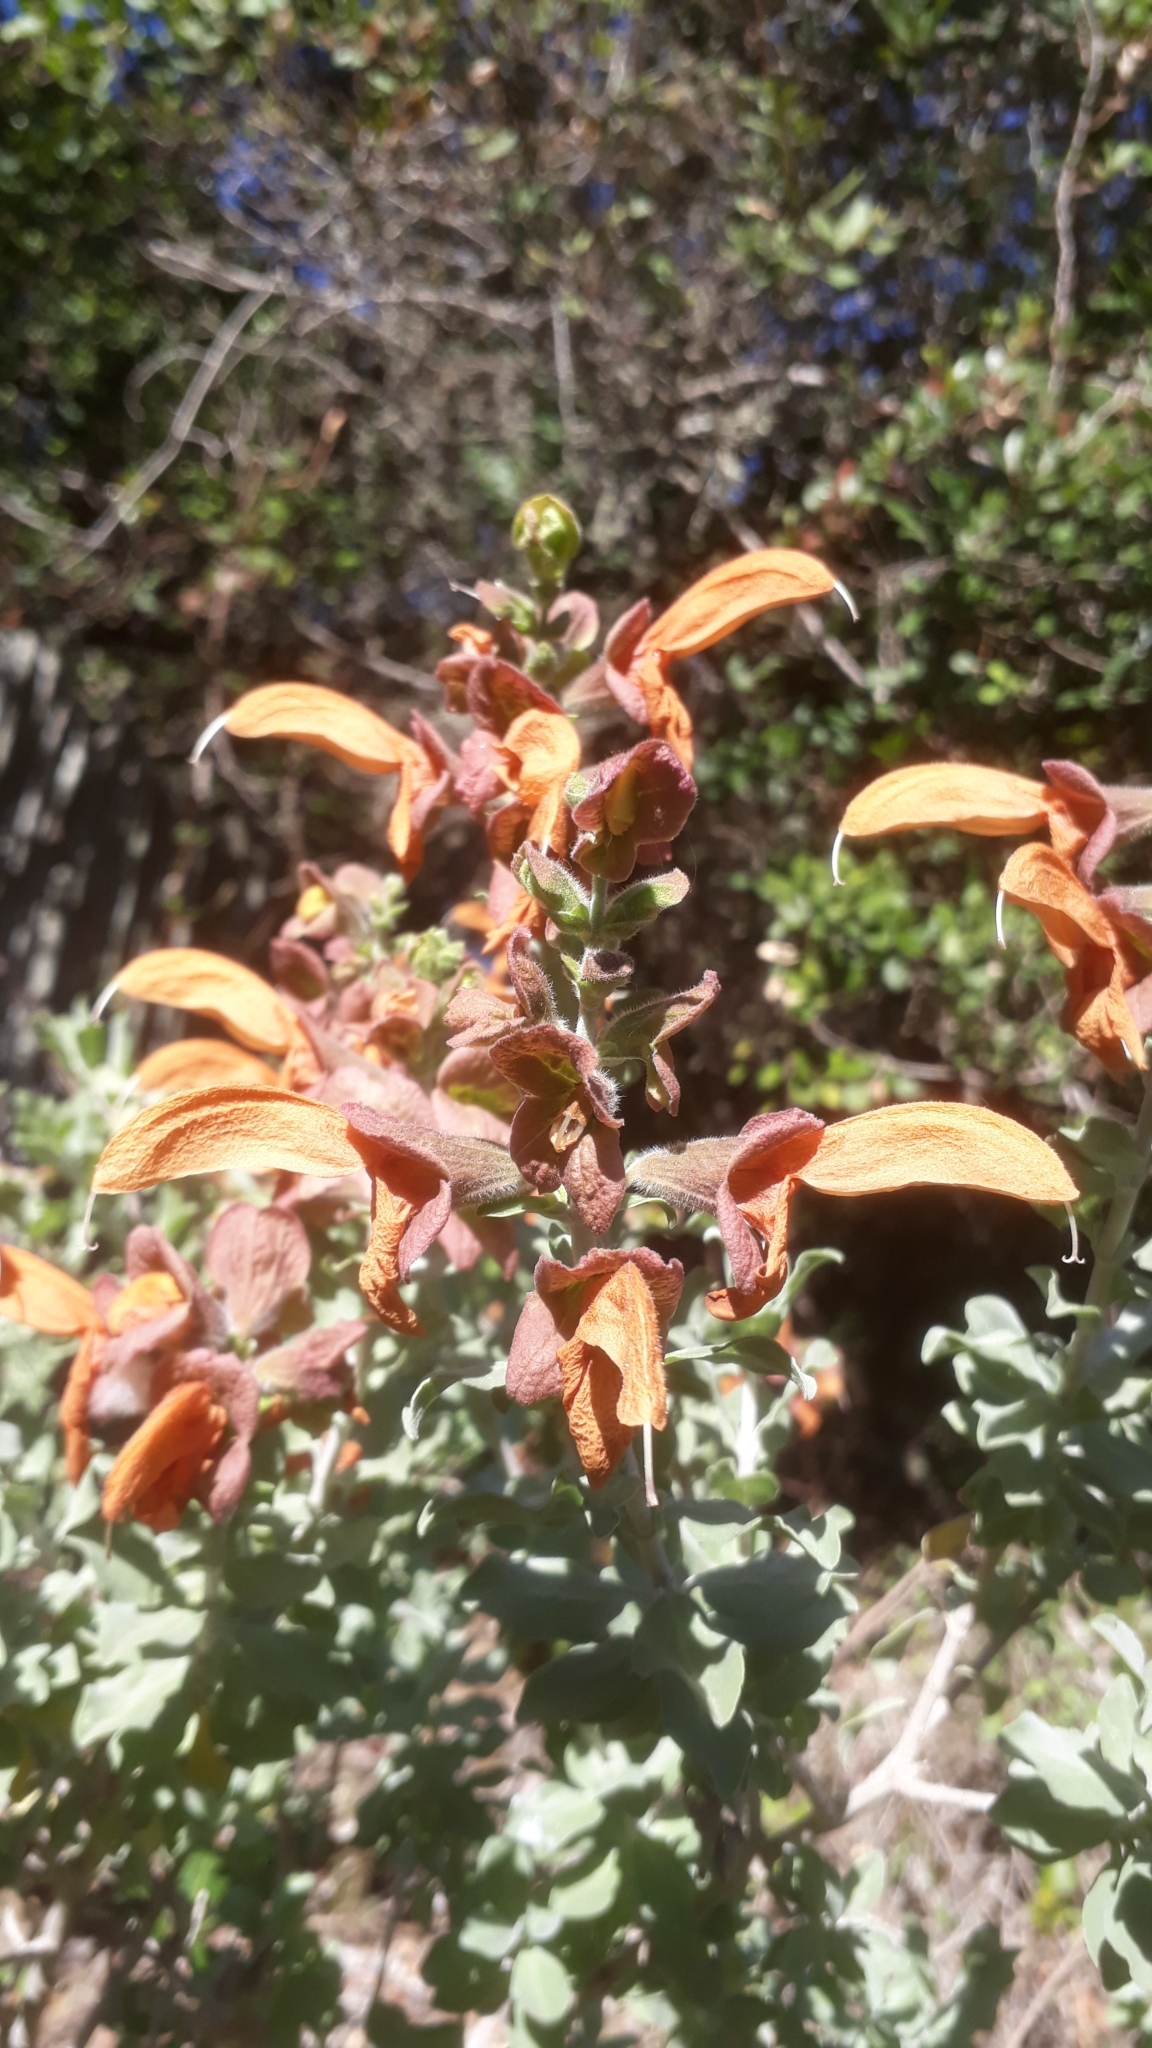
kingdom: Plantae
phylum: Tracheophyta
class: Magnoliopsida
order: Lamiales
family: Lamiaceae
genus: Salvia
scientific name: Salvia aurea
